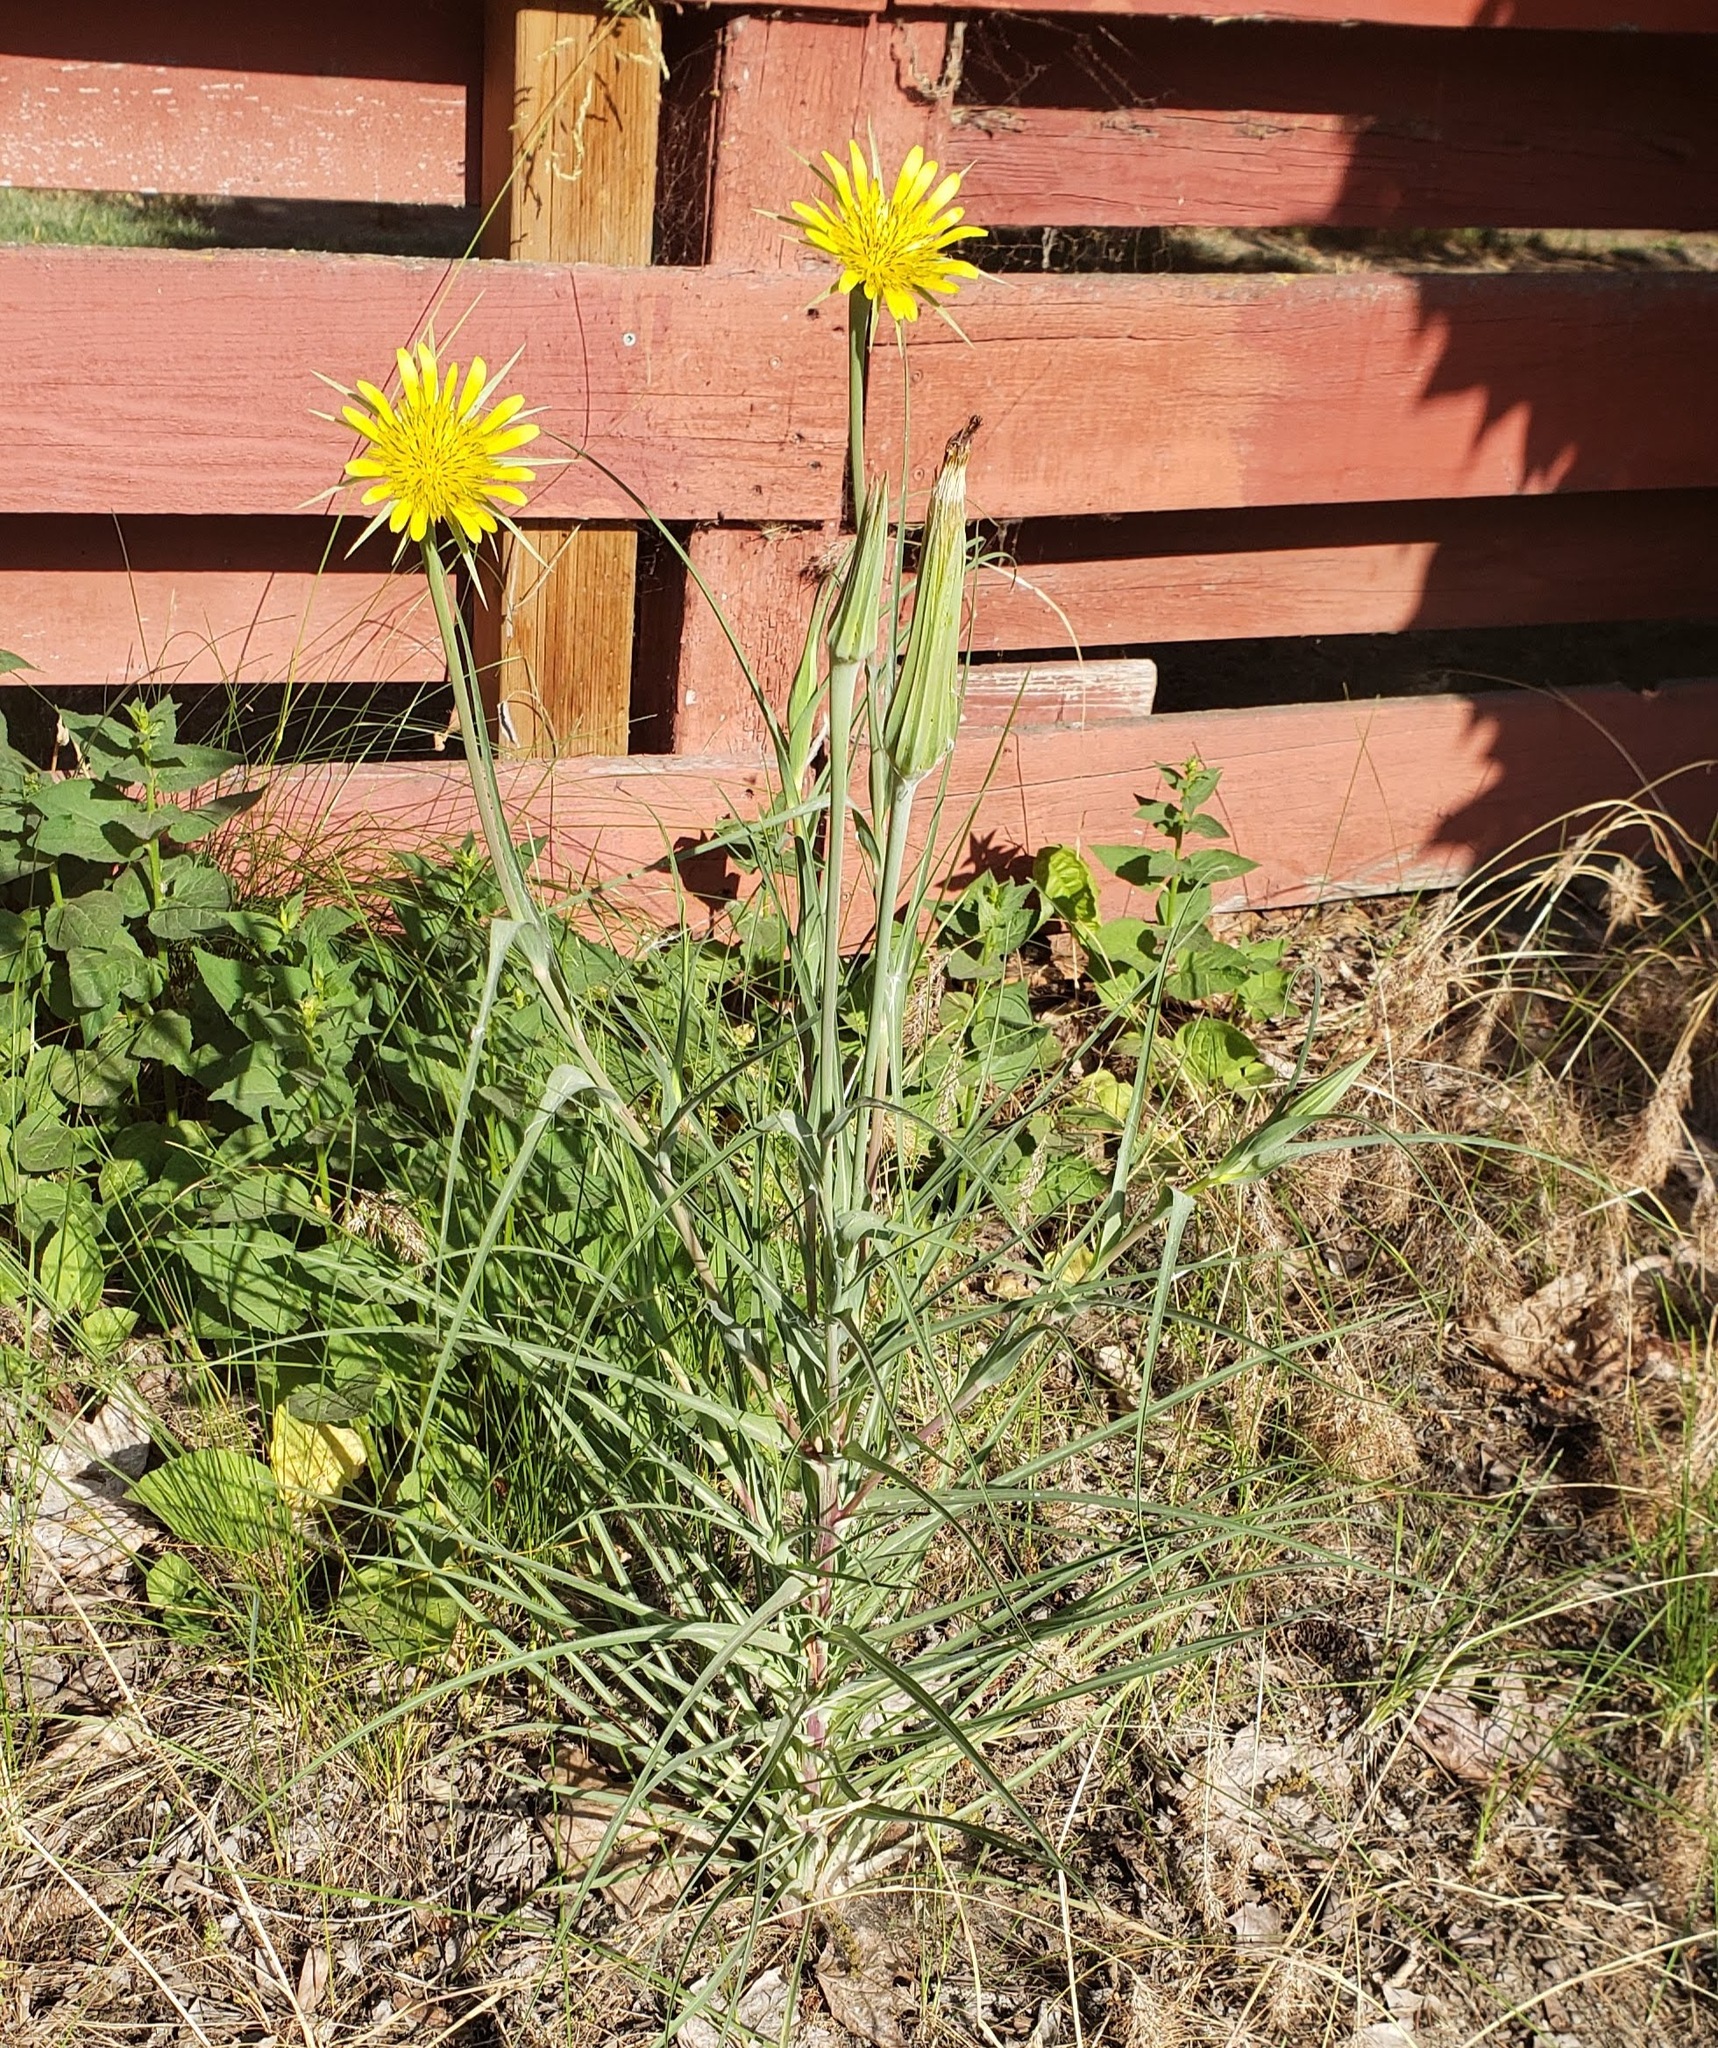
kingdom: Plantae
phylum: Tracheophyta
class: Magnoliopsida
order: Asterales
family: Asteraceae
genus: Tragopogon
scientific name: Tragopogon dubius
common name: Yellow salsify
